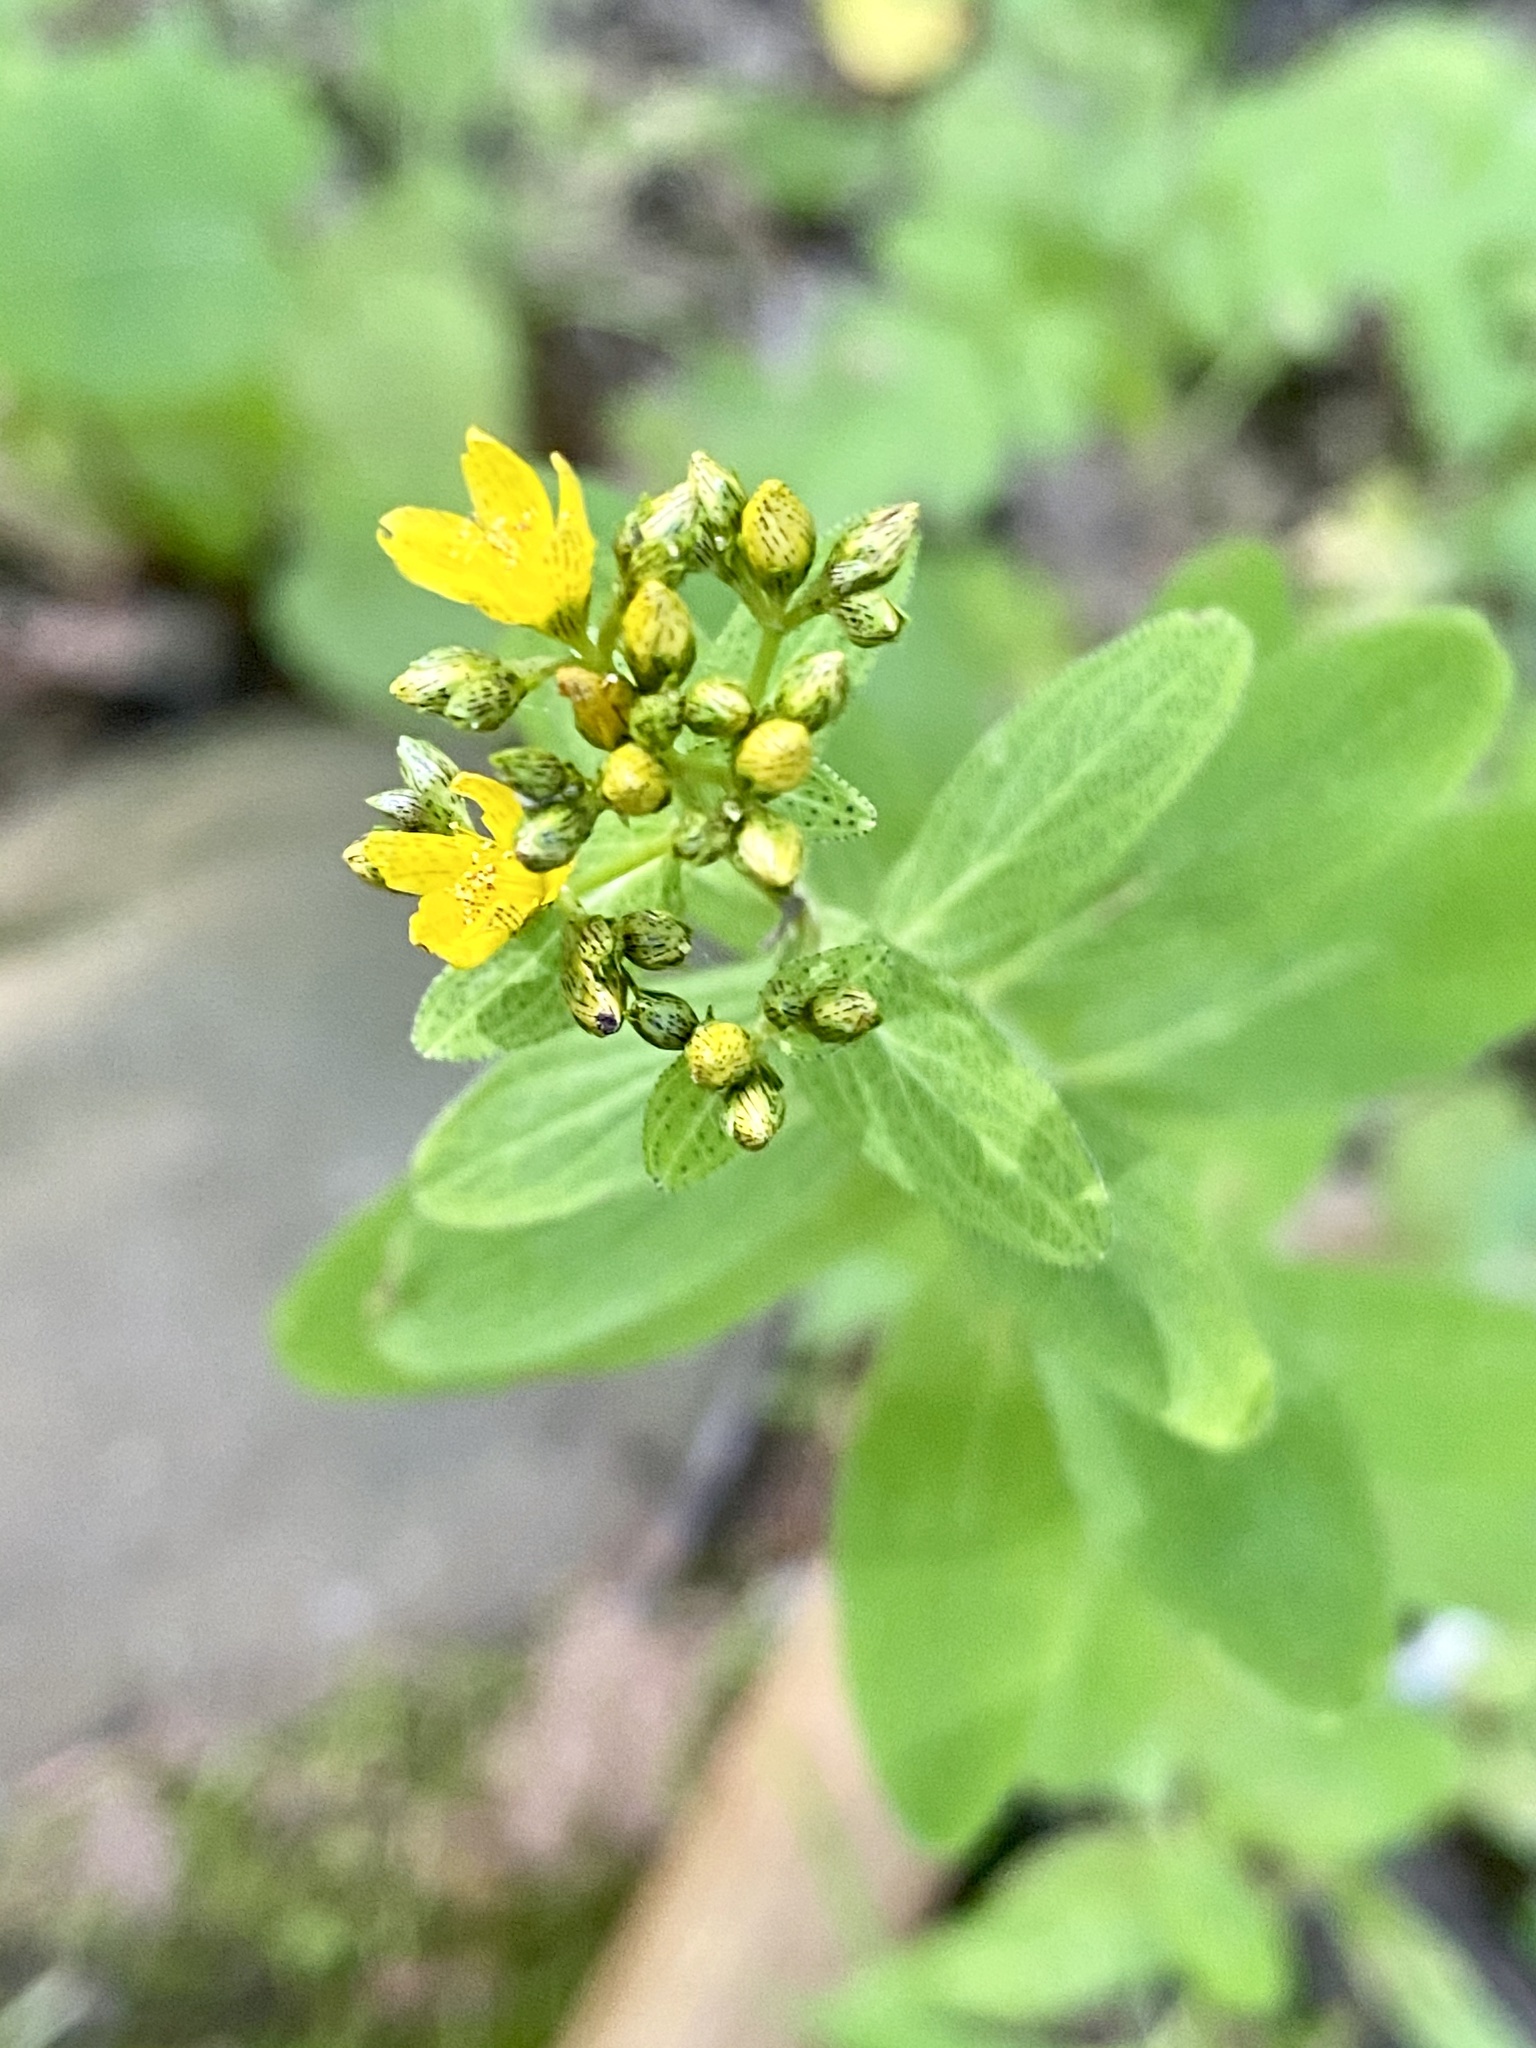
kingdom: Plantae
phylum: Tracheophyta
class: Magnoliopsida
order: Malpighiales
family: Hypericaceae
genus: Hypericum
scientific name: Hypericum punctatum
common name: Spotted st. john's-wort
